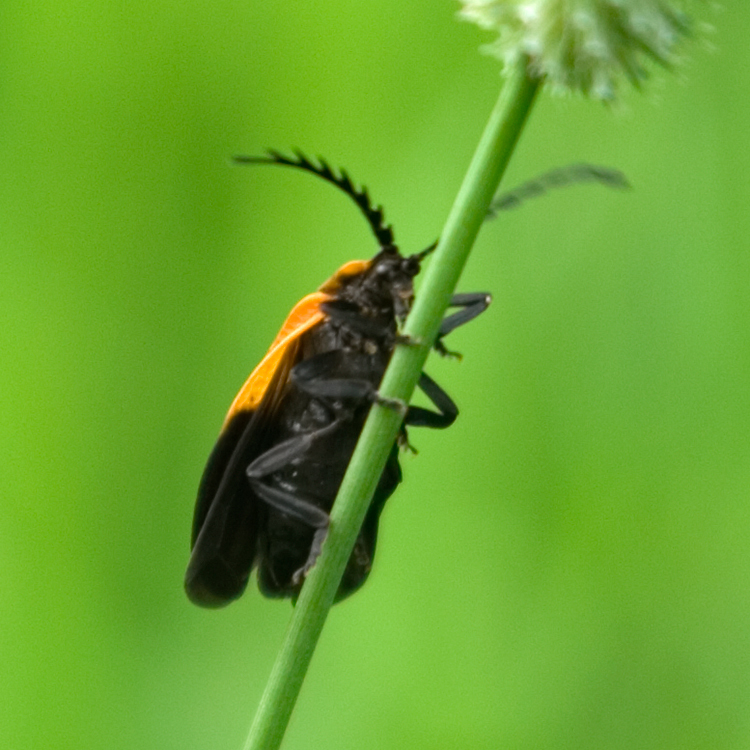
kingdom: Animalia
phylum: Arthropoda
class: Insecta
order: Coleoptera
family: Lycidae
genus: Caenia
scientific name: Caenia dimidiata
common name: Terminal net-winged beetle
